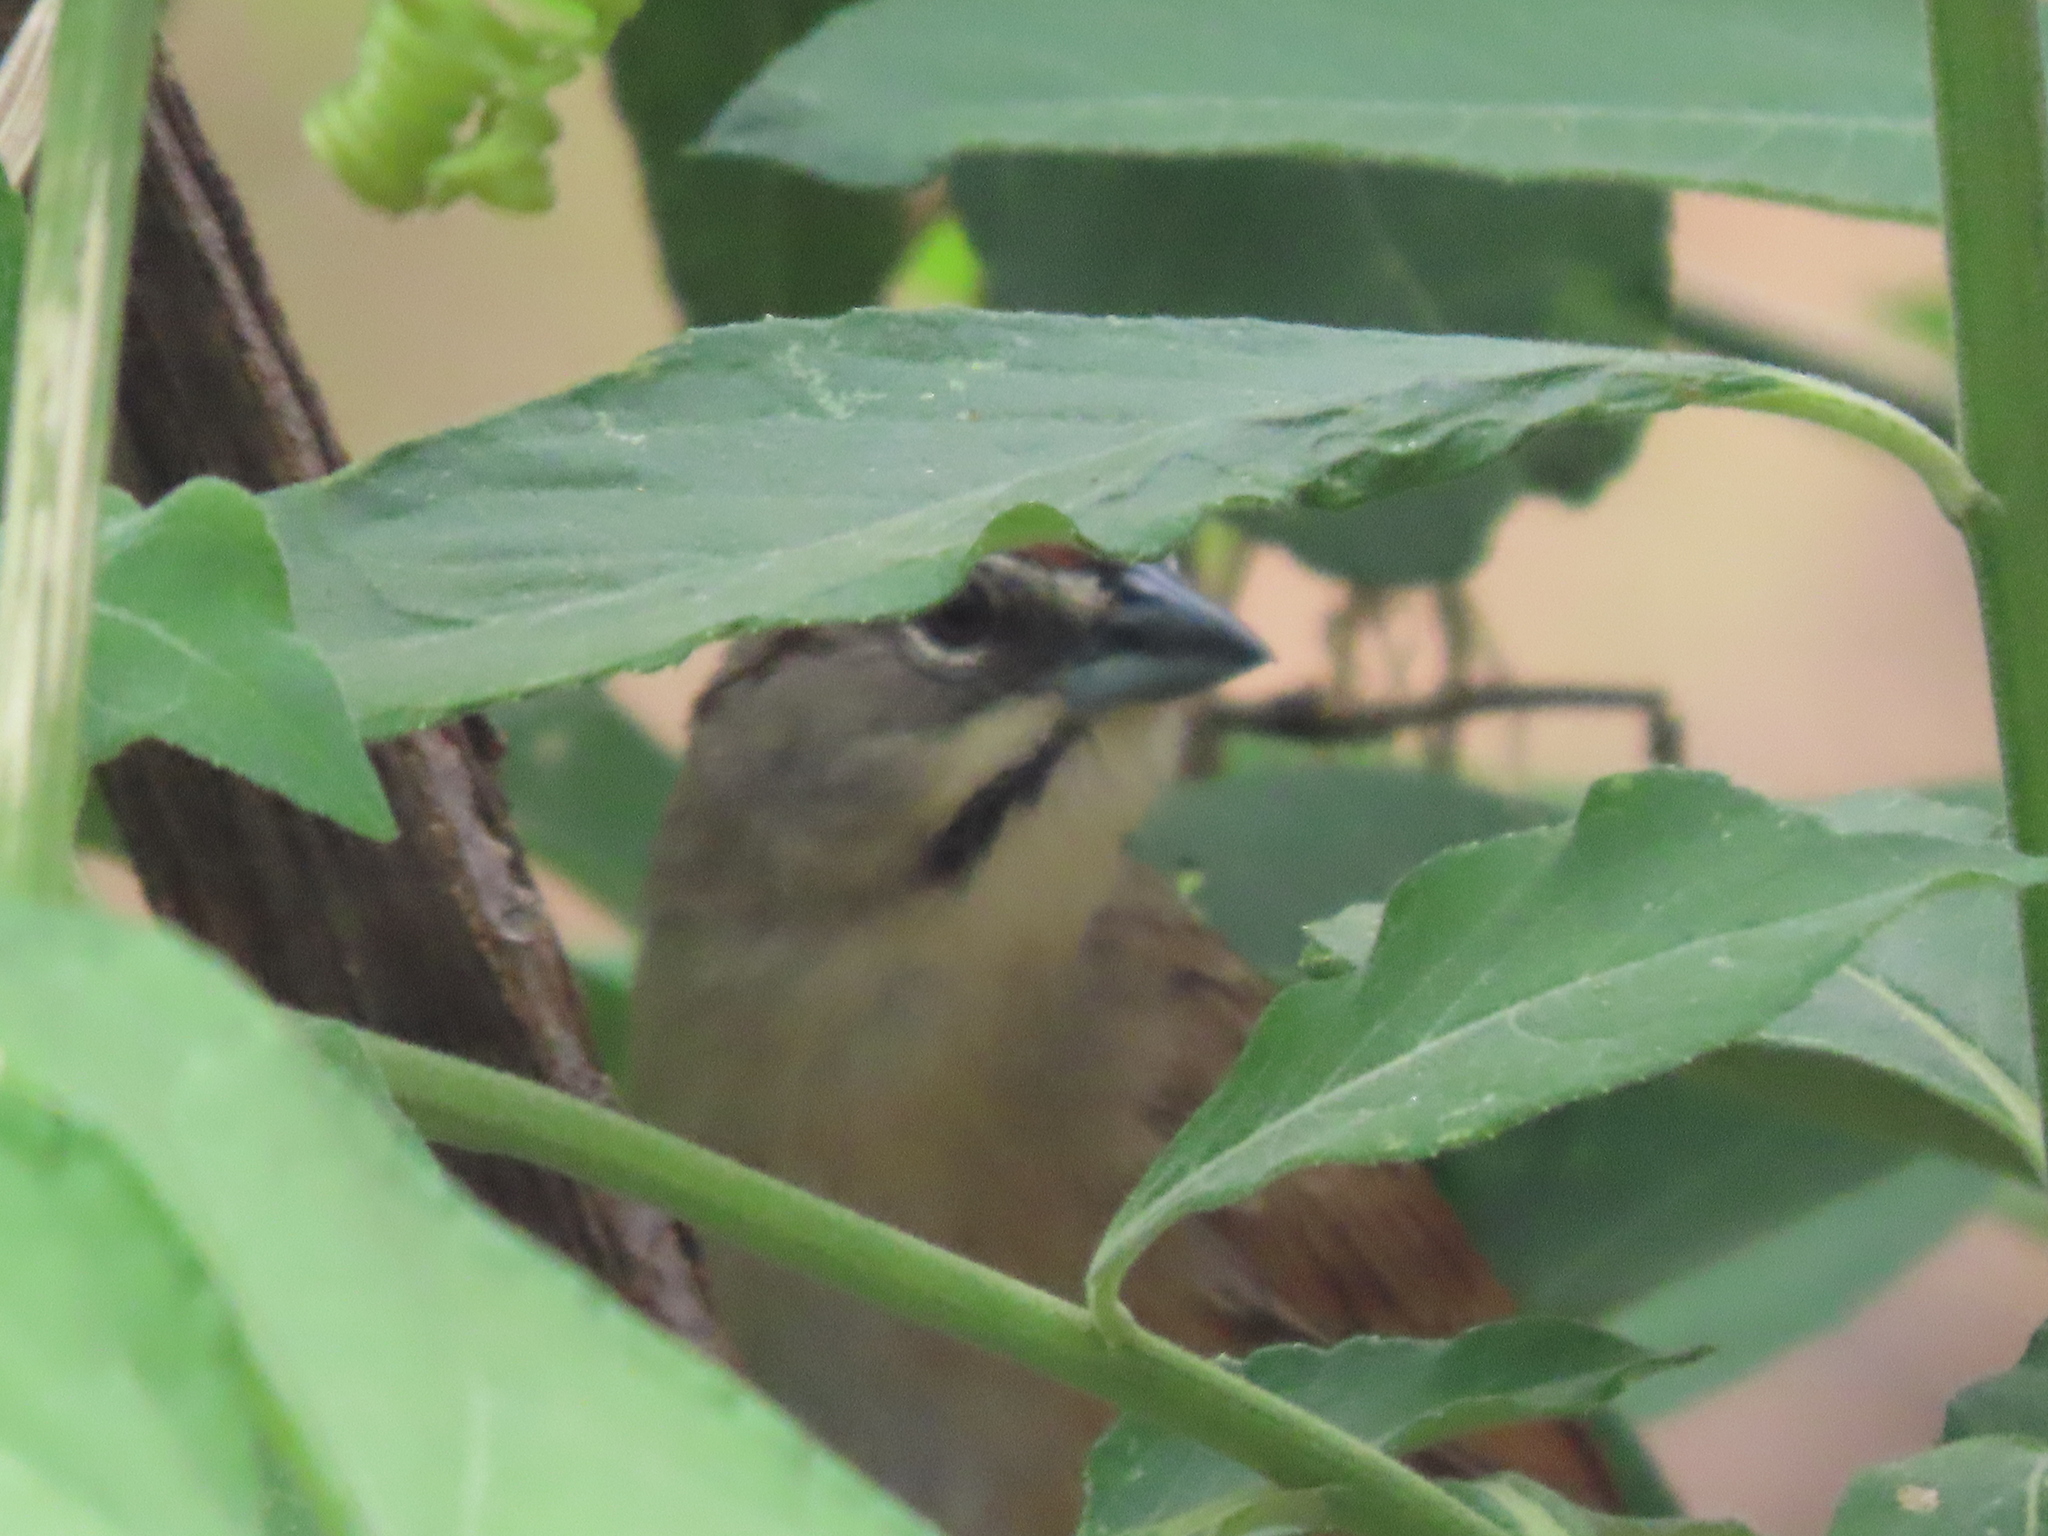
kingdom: Animalia
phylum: Chordata
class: Aves
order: Passeriformes
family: Passerellidae
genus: Aimophila
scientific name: Aimophila rufescens
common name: Rusty sparrow
